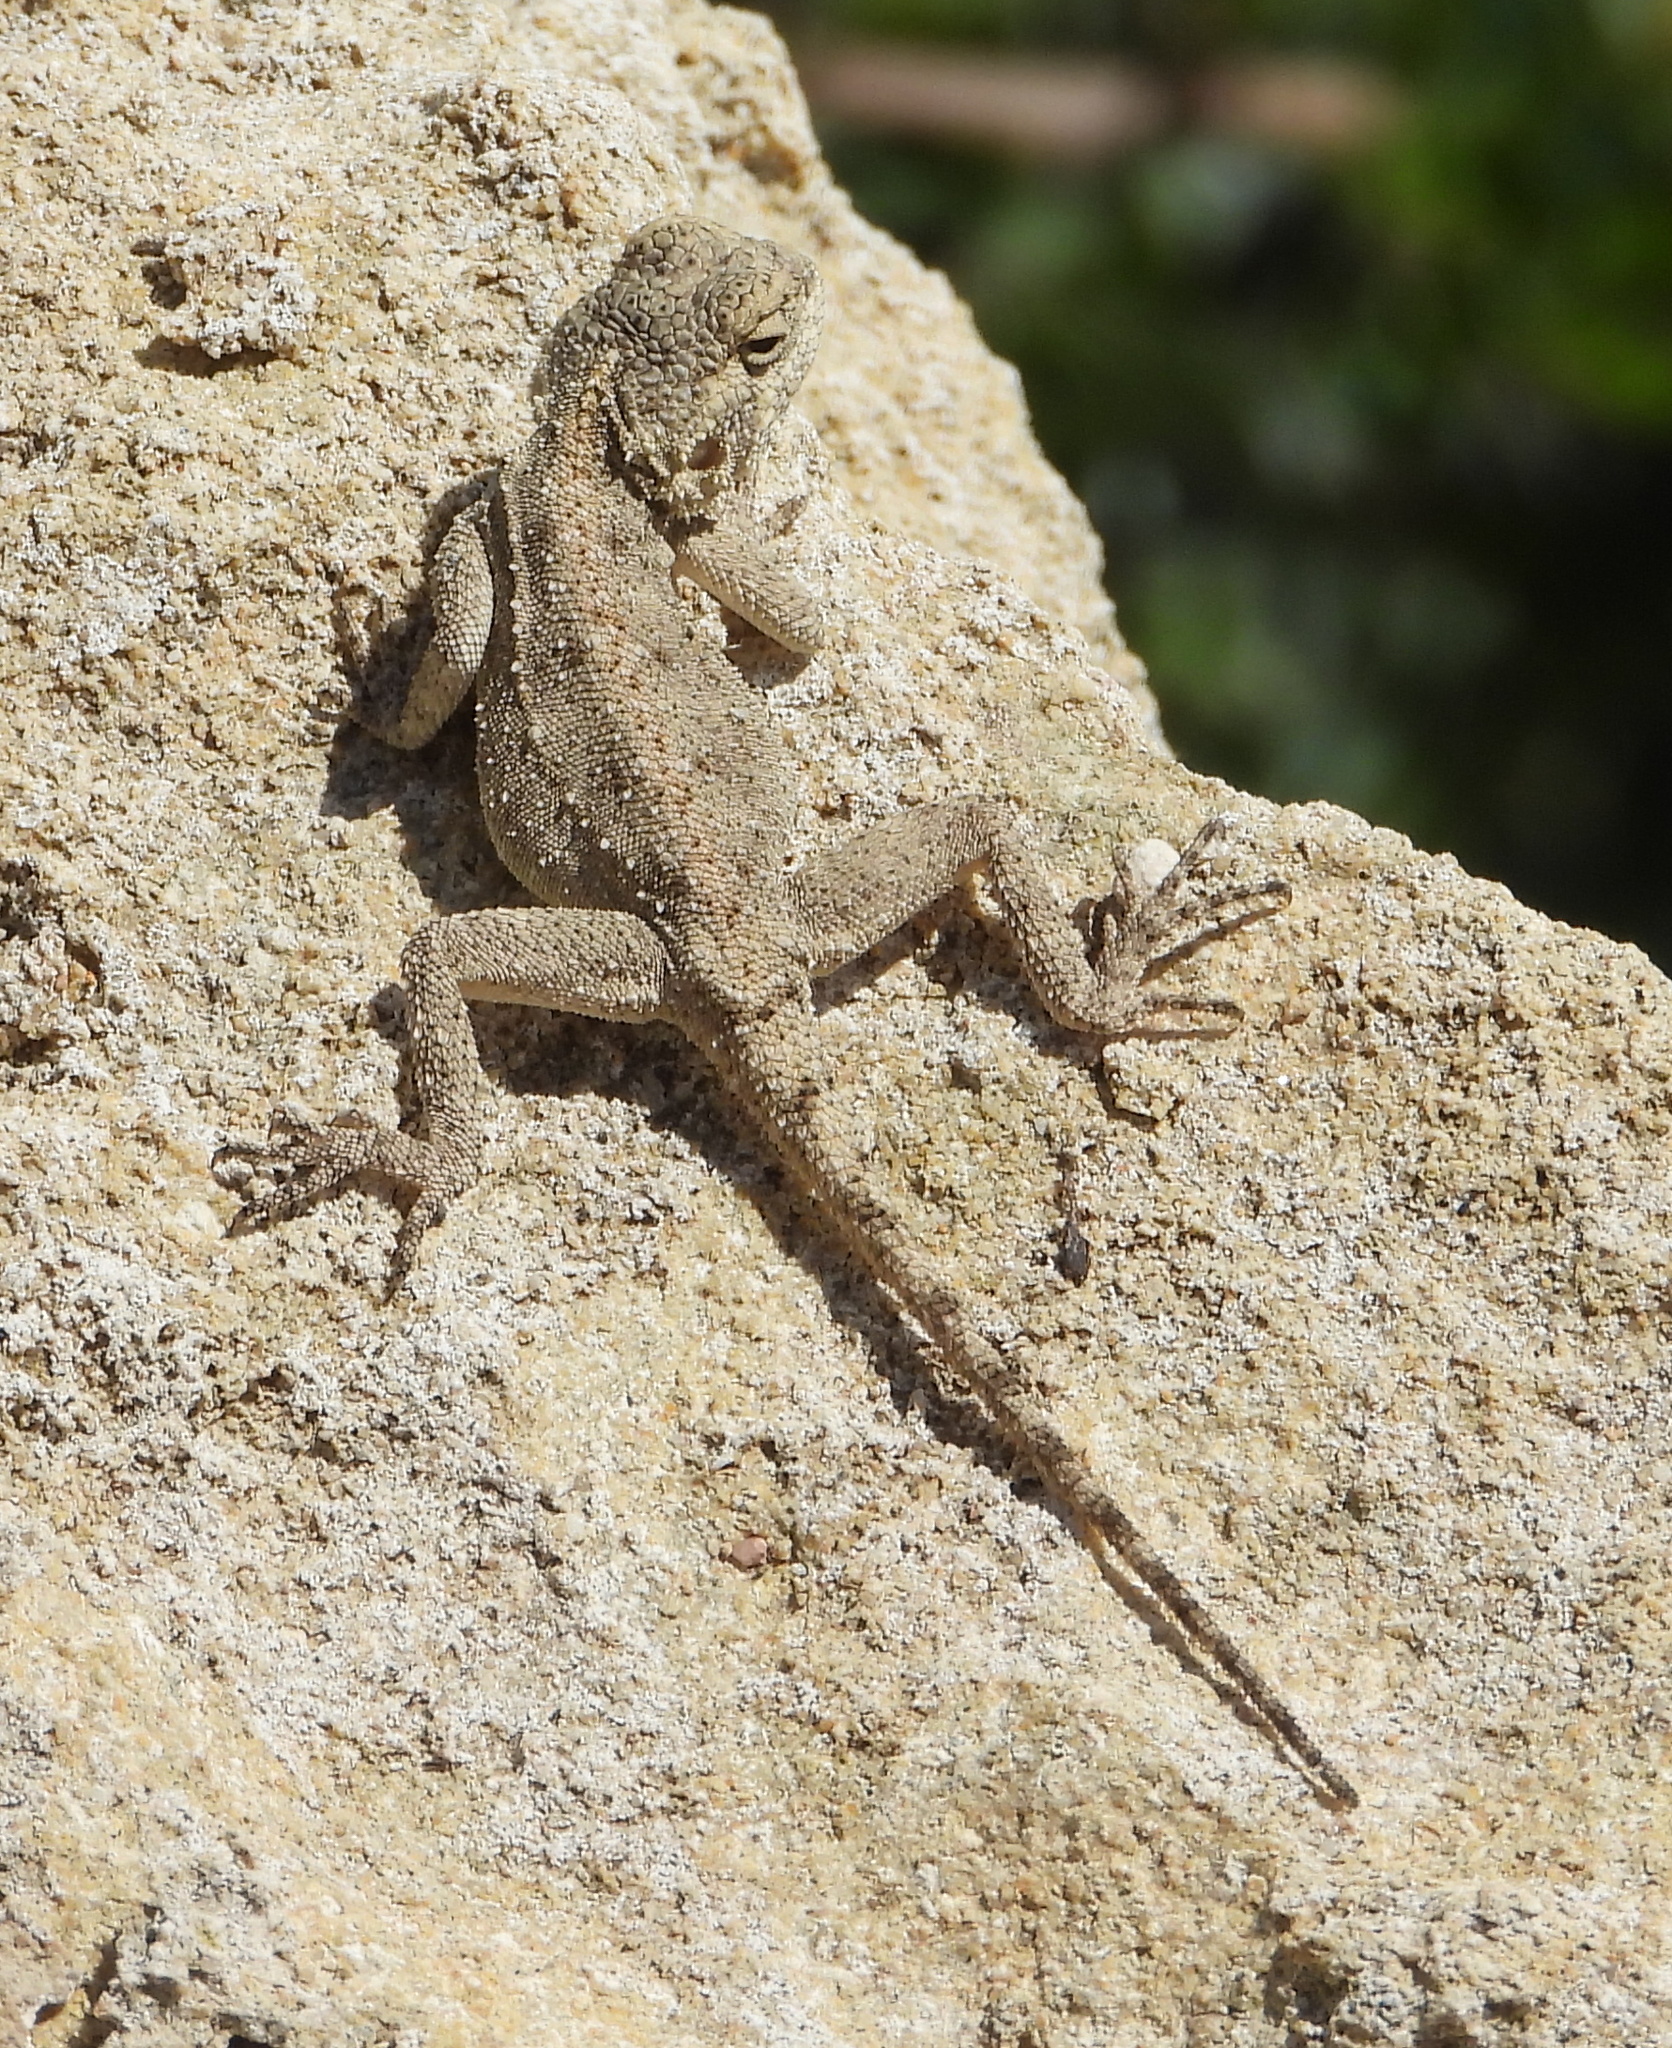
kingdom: Animalia
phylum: Chordata
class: Squamata
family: Agamidae
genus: Agama
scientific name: Agama atra
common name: Southern african rock agama
